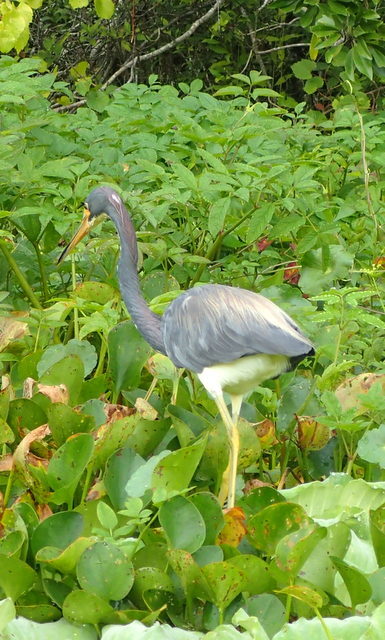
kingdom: Animalia
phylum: Chordata
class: Aves
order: Pelecaniformes
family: Ardeidae
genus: Egretta
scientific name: Egretta tricolor
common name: Tricolored heron
